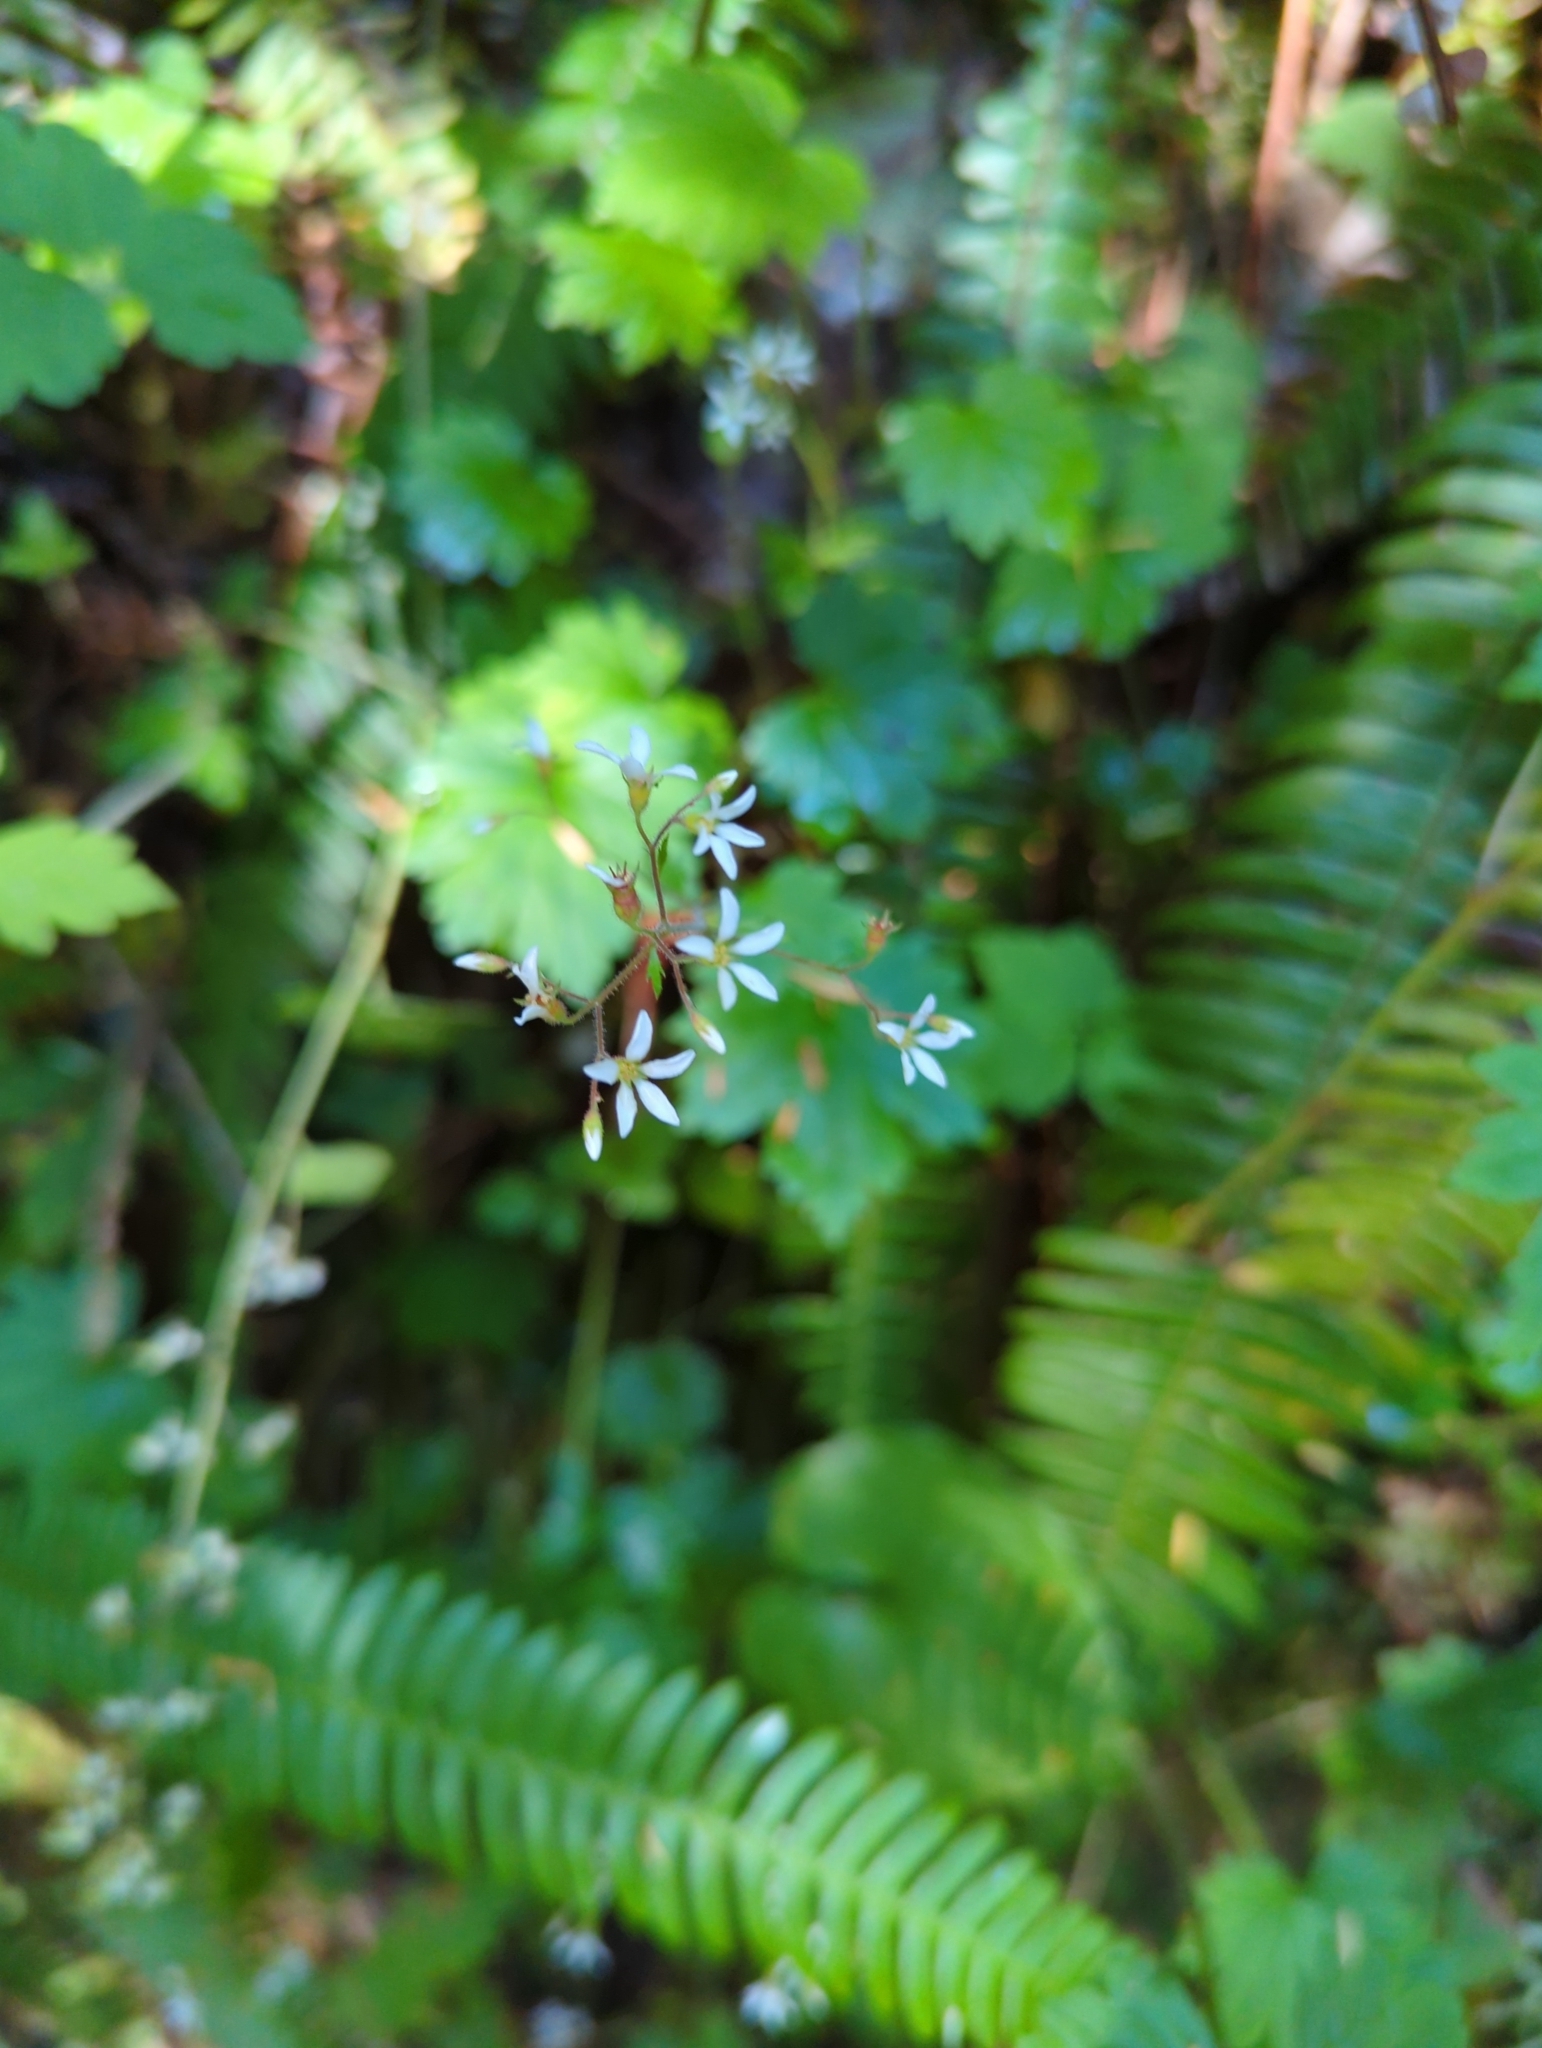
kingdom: Plantae
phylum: Tracheophyta
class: Magnoliopsida
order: Saxifragales
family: Saxifragaceae
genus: Boykinia
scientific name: Boykinia occidentalis
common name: Coast boykinia
